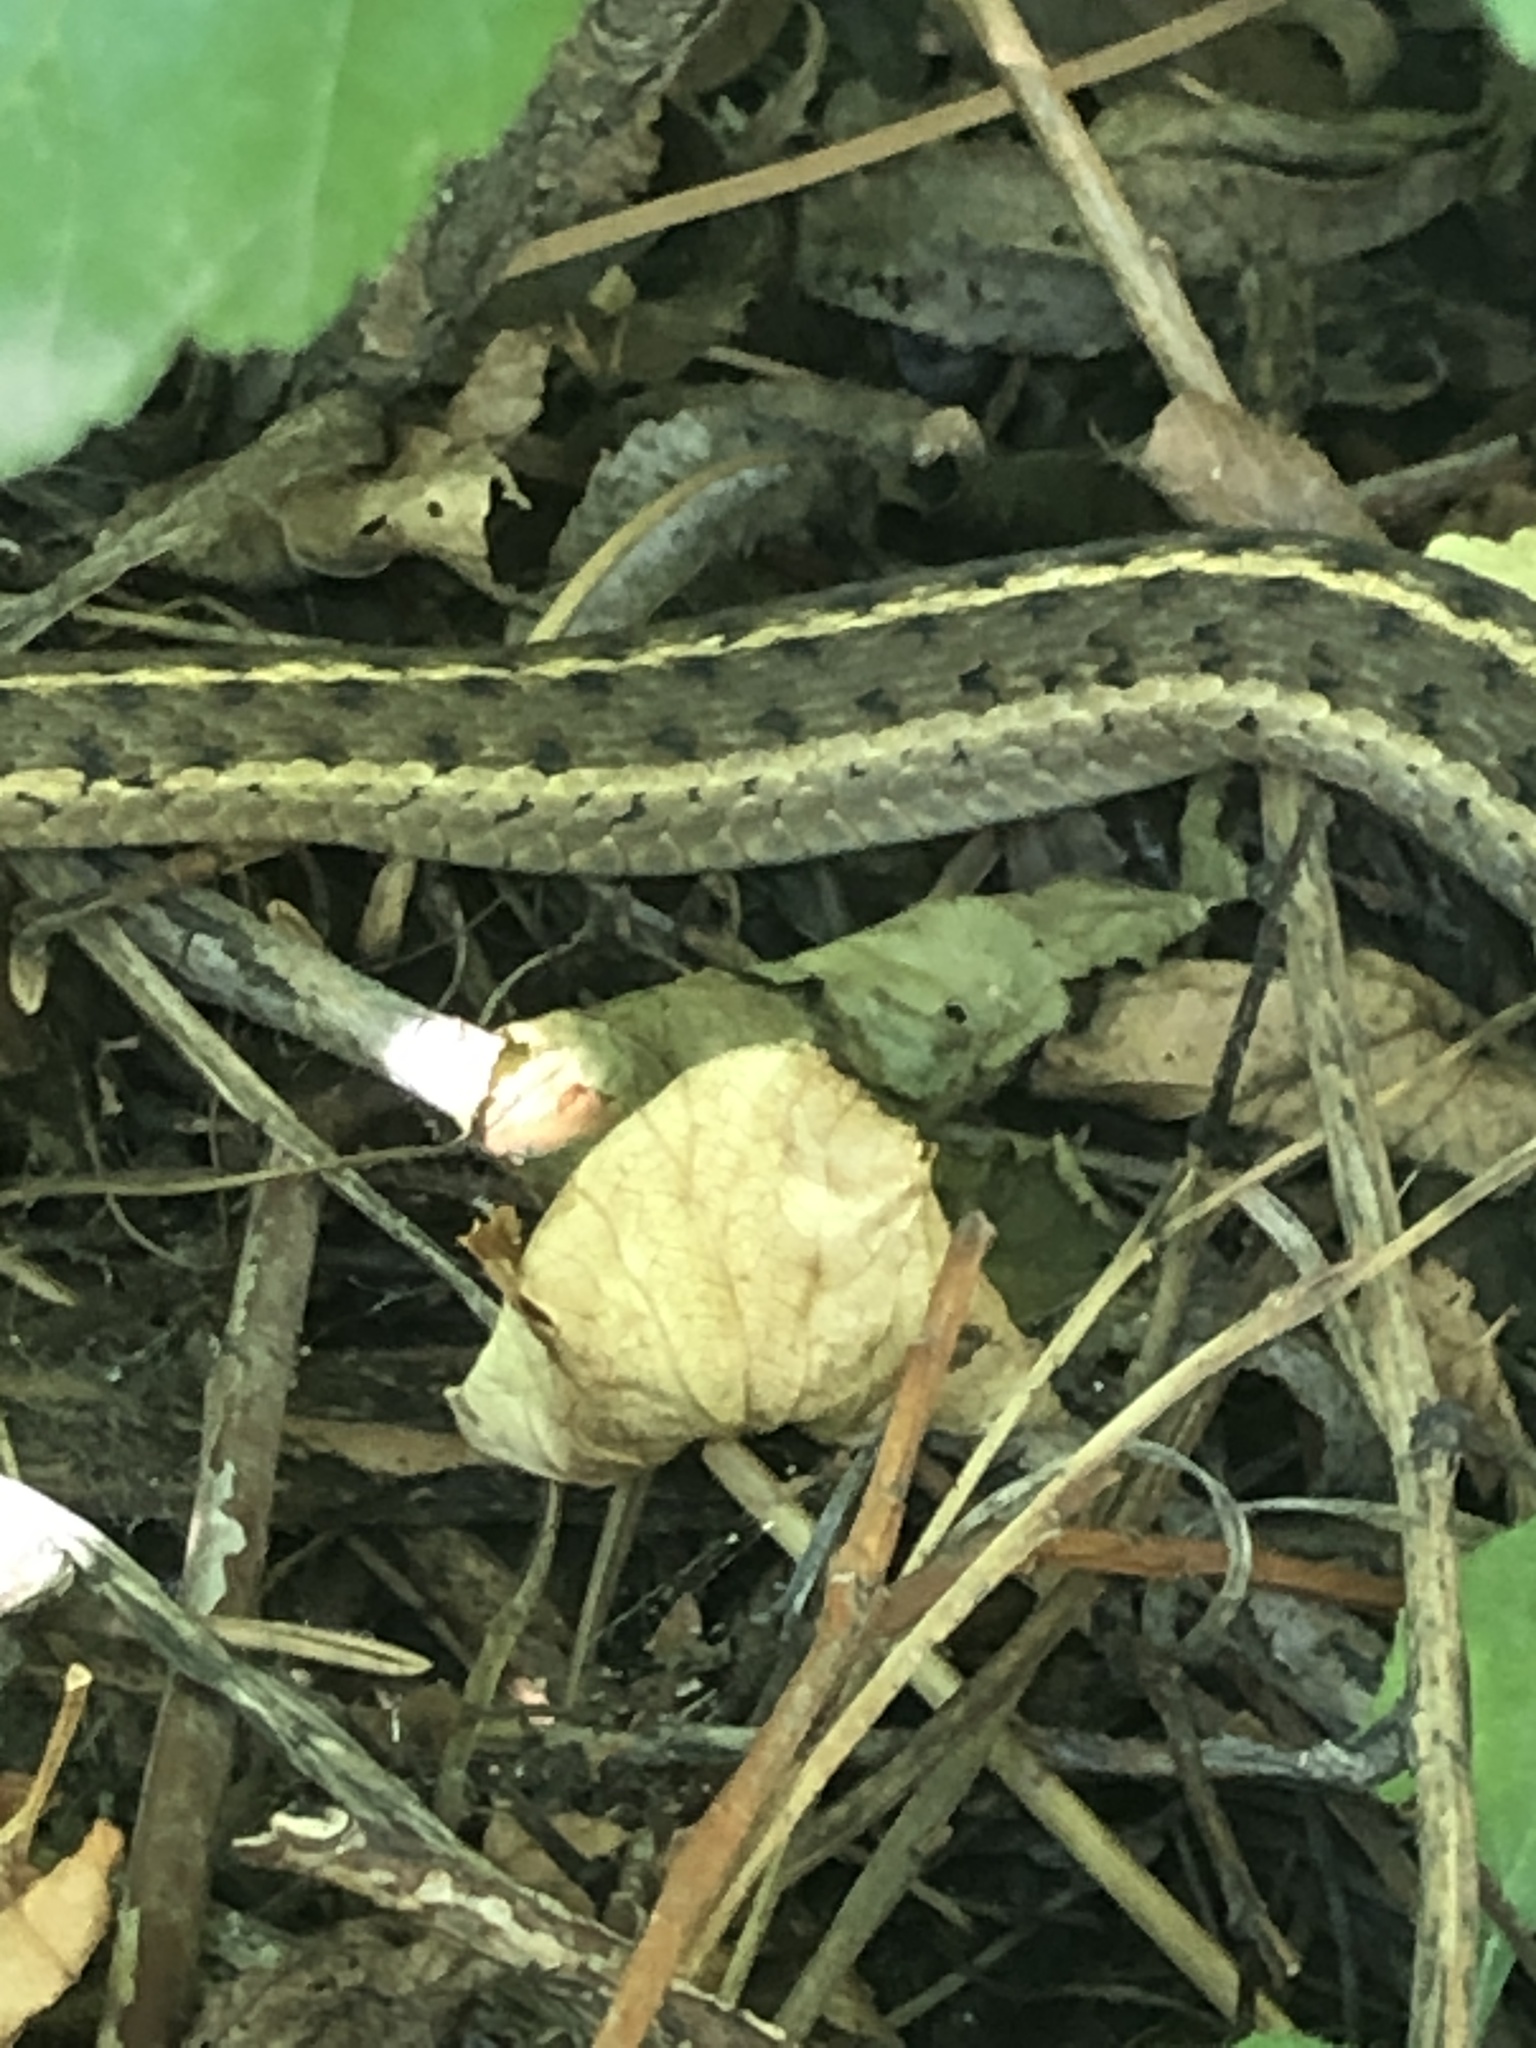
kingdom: Animalia
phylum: Chordata
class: Squamata
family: Colubridae
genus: Thamnophis
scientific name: Thamnophis elegans
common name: Western terrestrial garter snake
